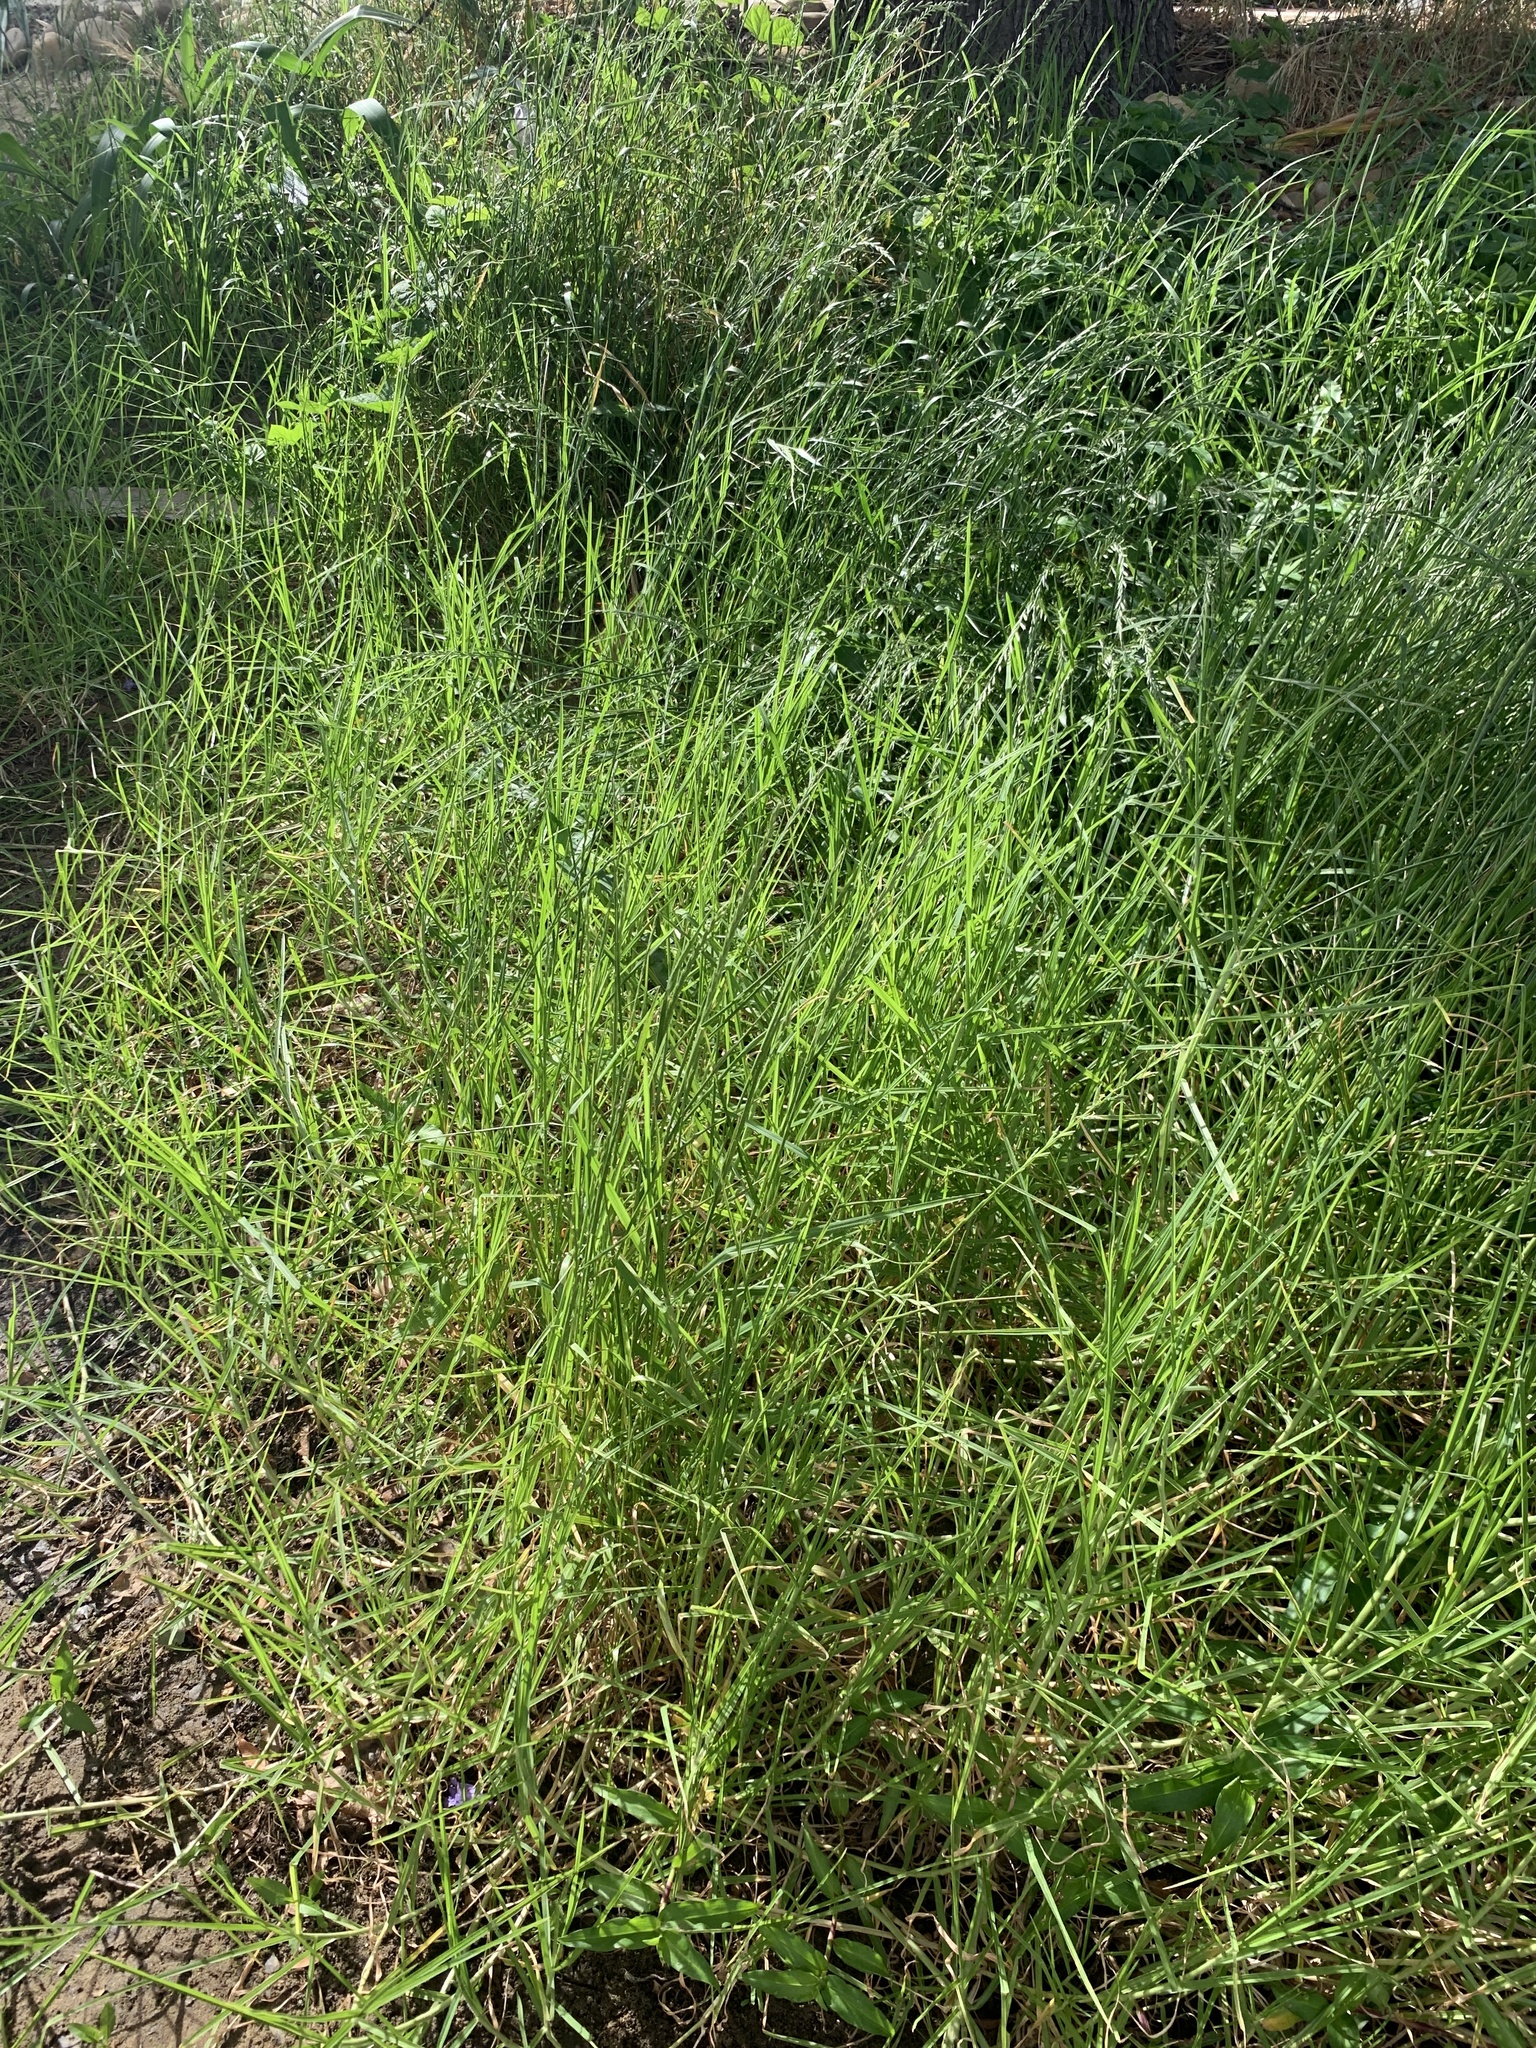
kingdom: Plantae
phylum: Tracheophyta
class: Liliopsida
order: Poales
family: Poaceae
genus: Cenchrus
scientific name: Cenchrus clandestinus
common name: Kikuyugrass
